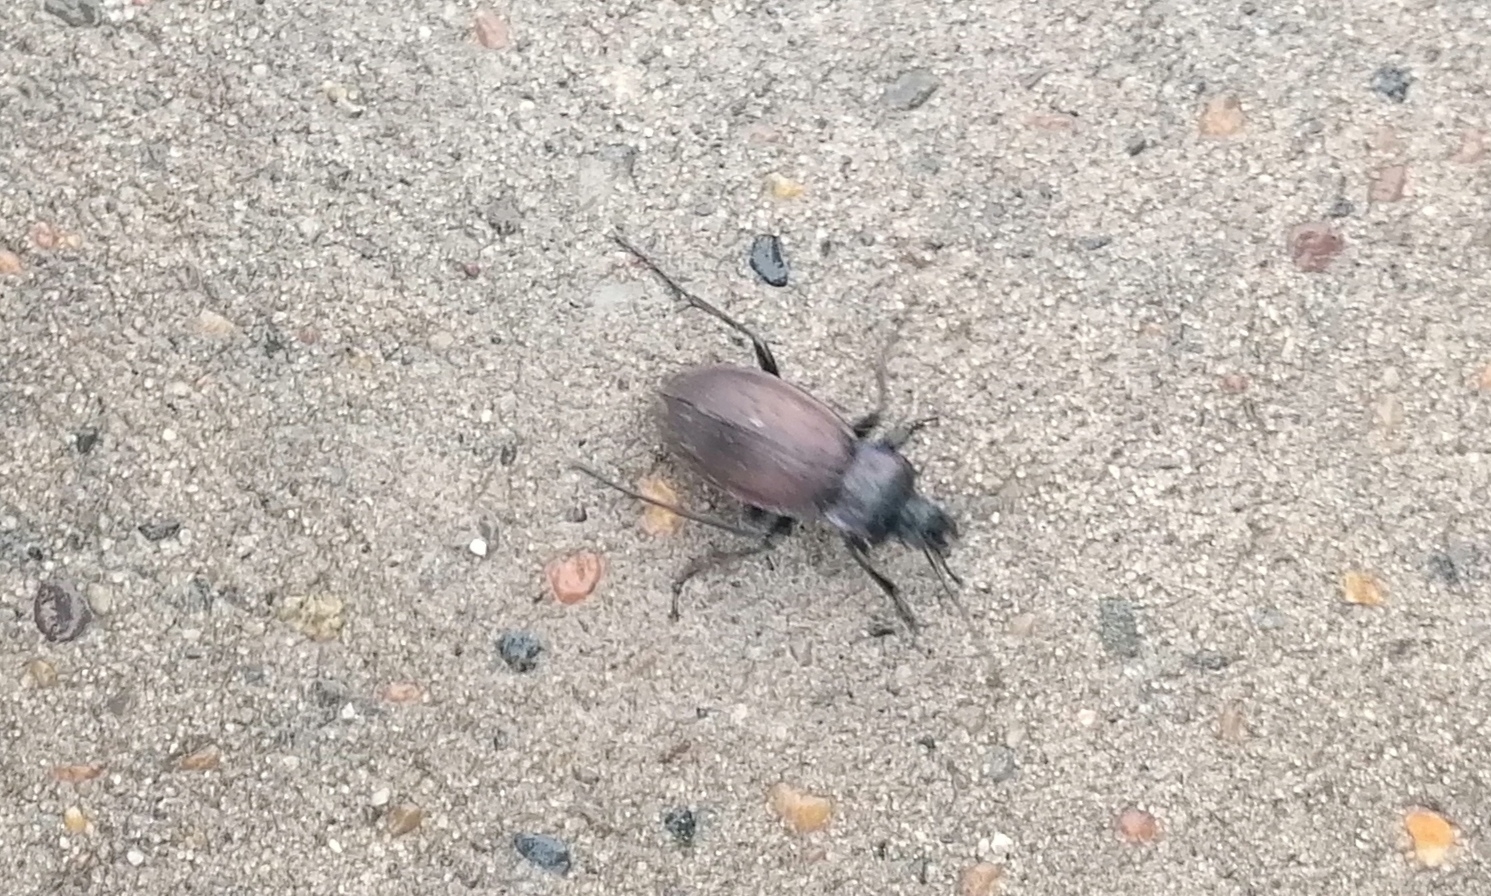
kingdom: Animalia
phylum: Arthropoda
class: Insecta
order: Coleoptera
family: Carabidae
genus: Carabus
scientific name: Carabus nemoralis
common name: European ground beetle
